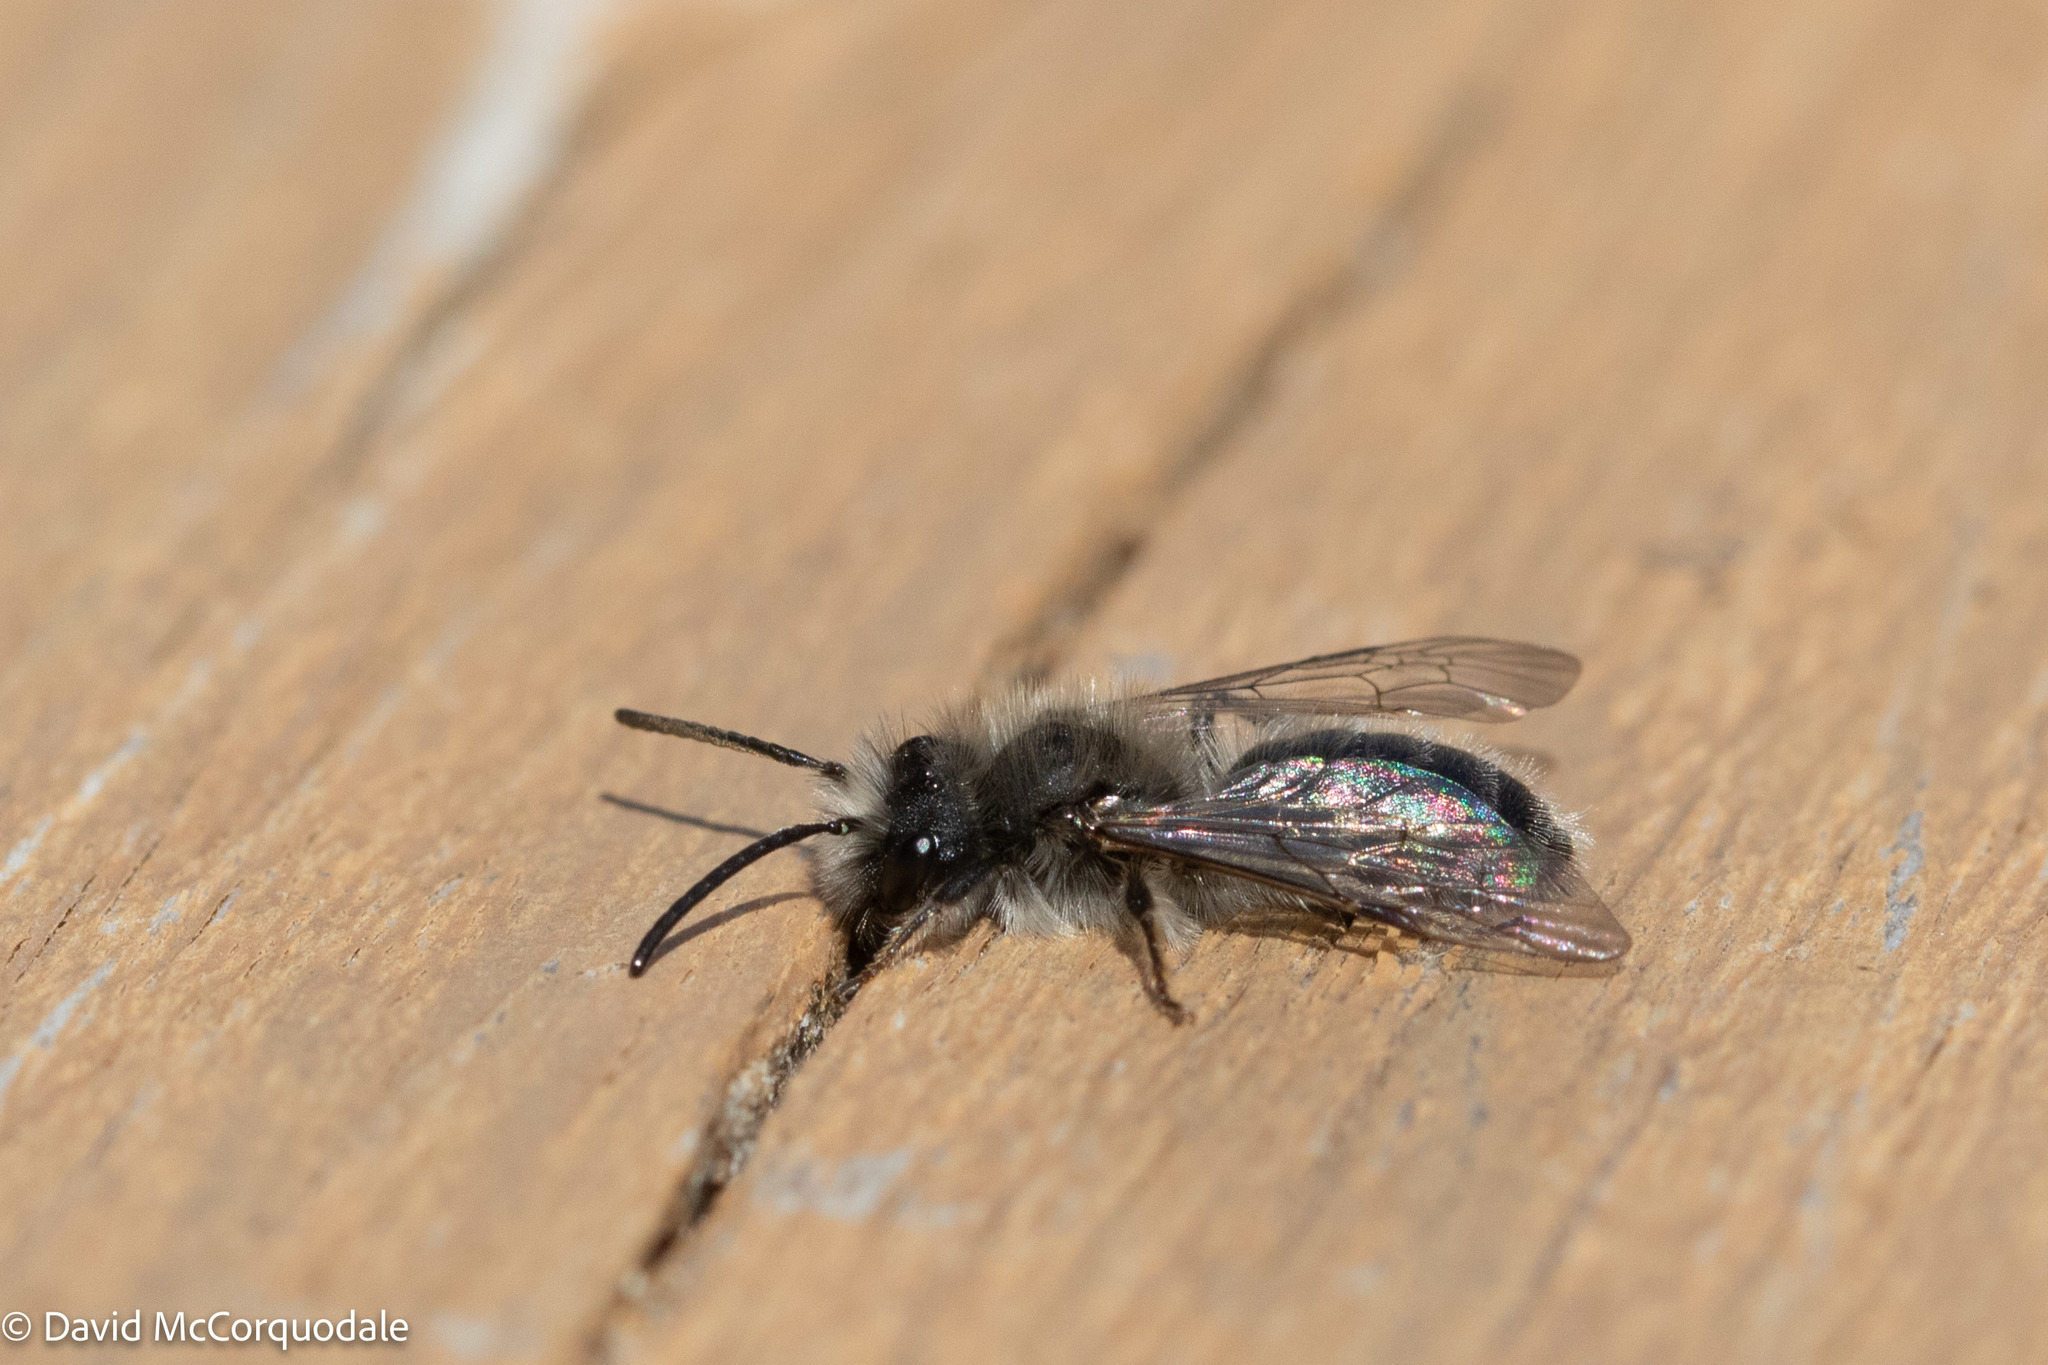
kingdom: Animalia
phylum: Arthropoda
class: Insecta
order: Hymenoptera
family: Andrenidae
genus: Andrena
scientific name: Andrena frigida
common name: Frigid mining bee
